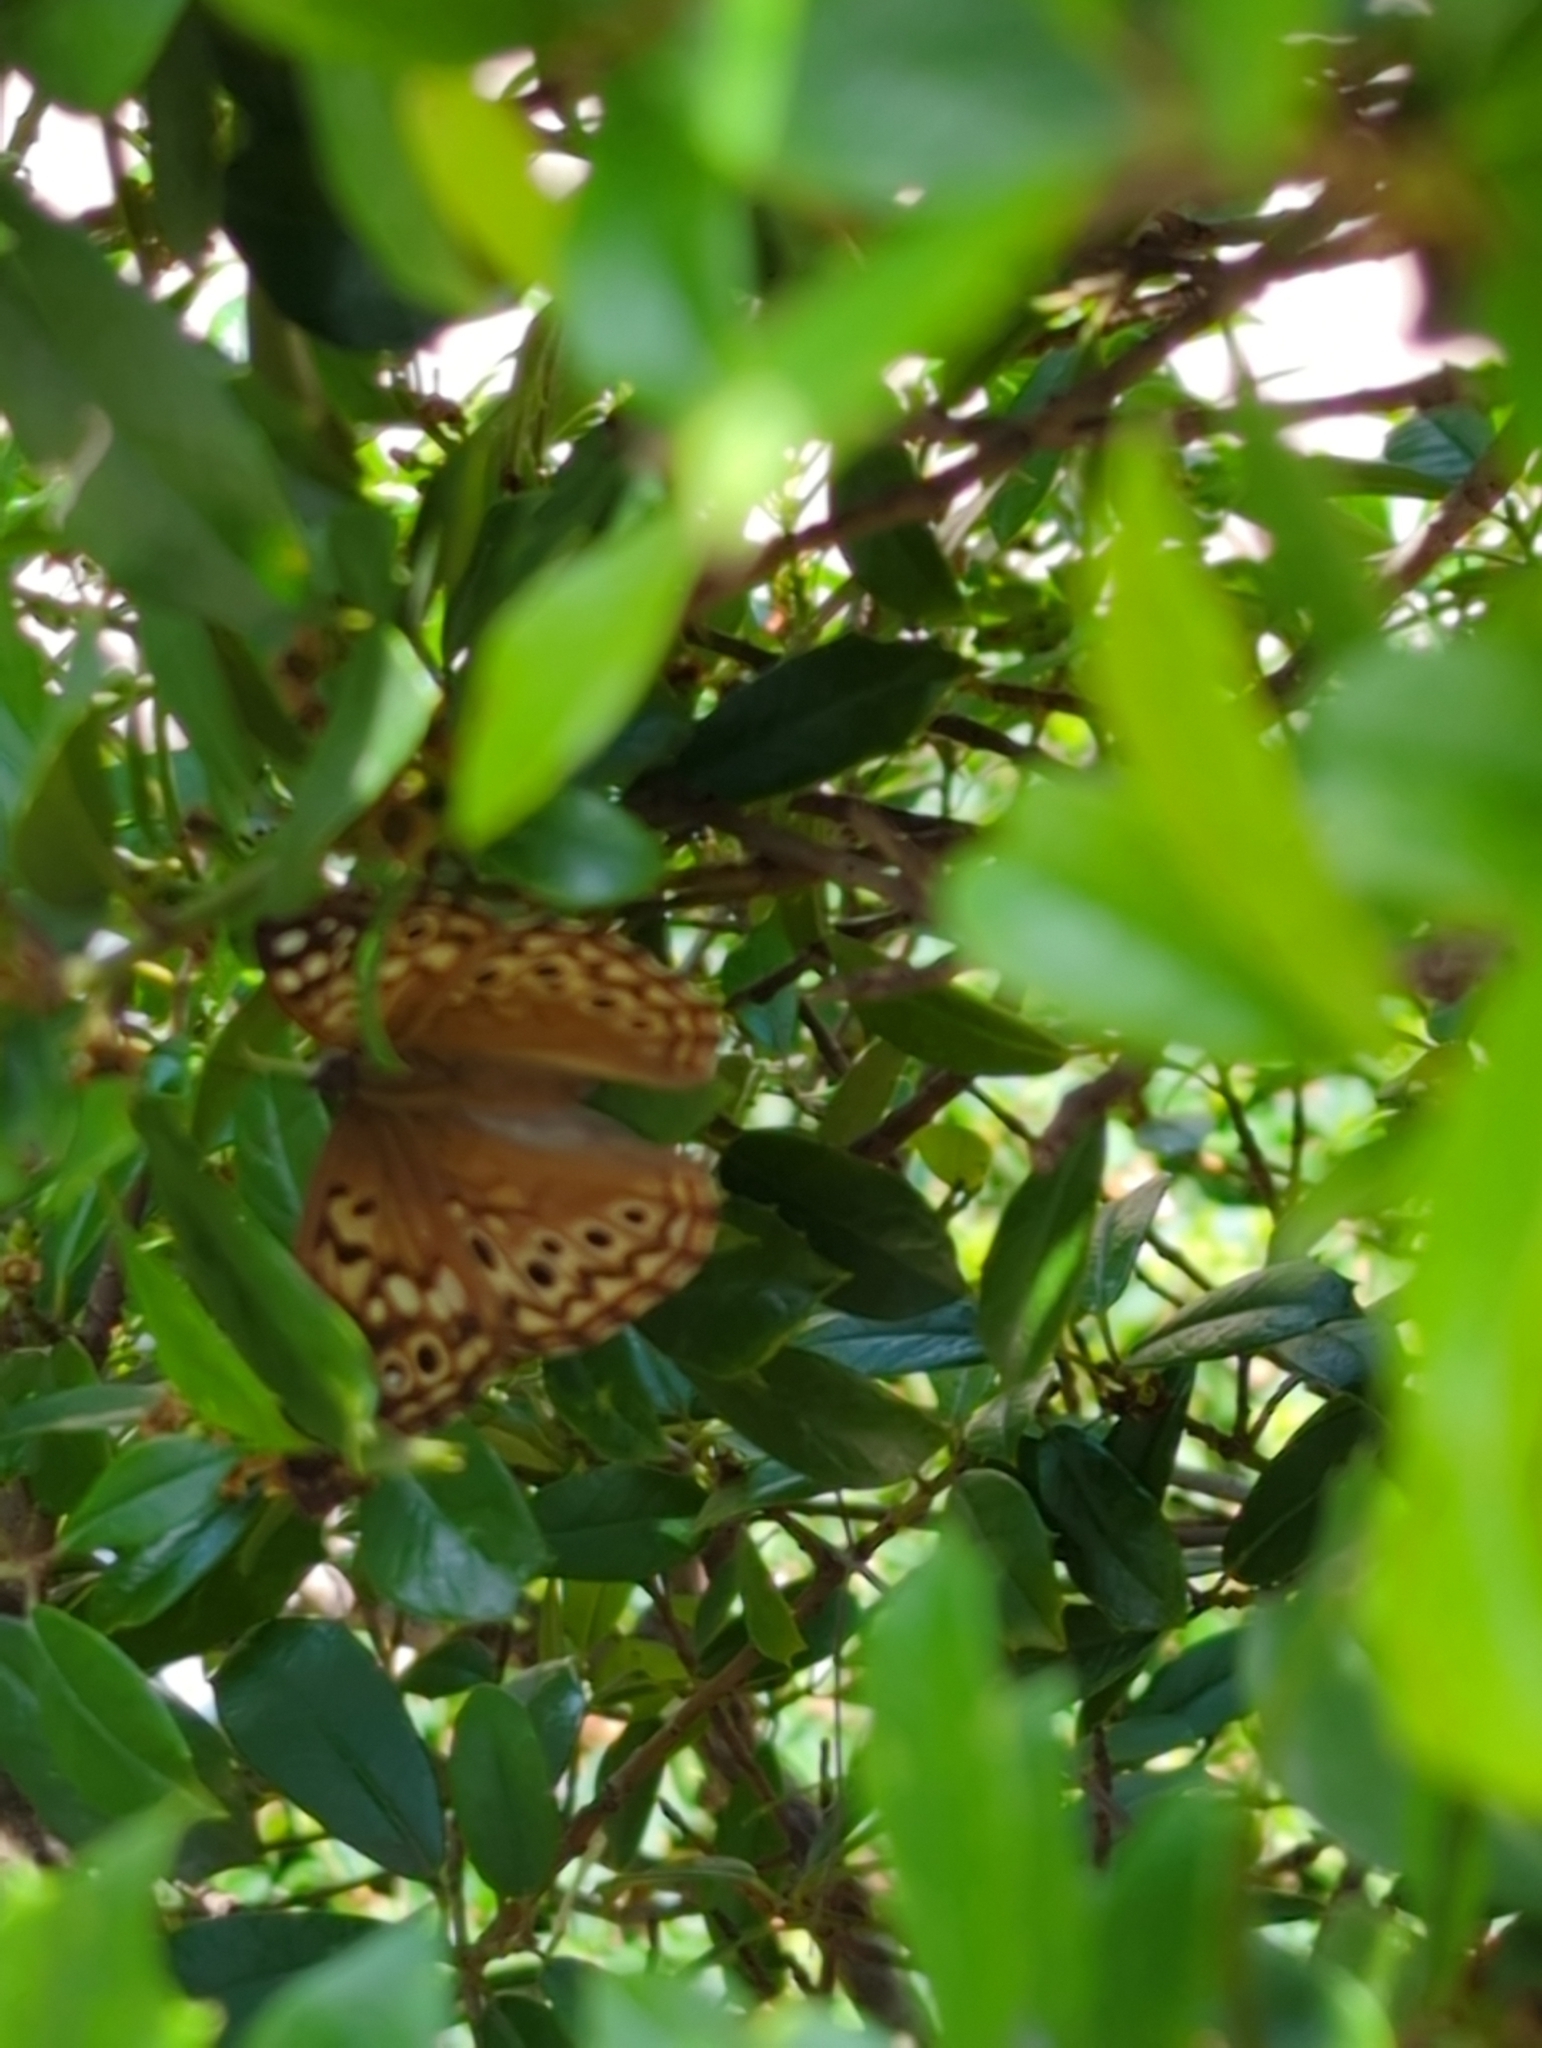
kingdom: Animalia
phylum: Arthropoda
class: Insecta
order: Lepidoptera
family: Nymphalidae
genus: Asterocampa
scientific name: Asterocampa celtis
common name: Hackberry emperor
